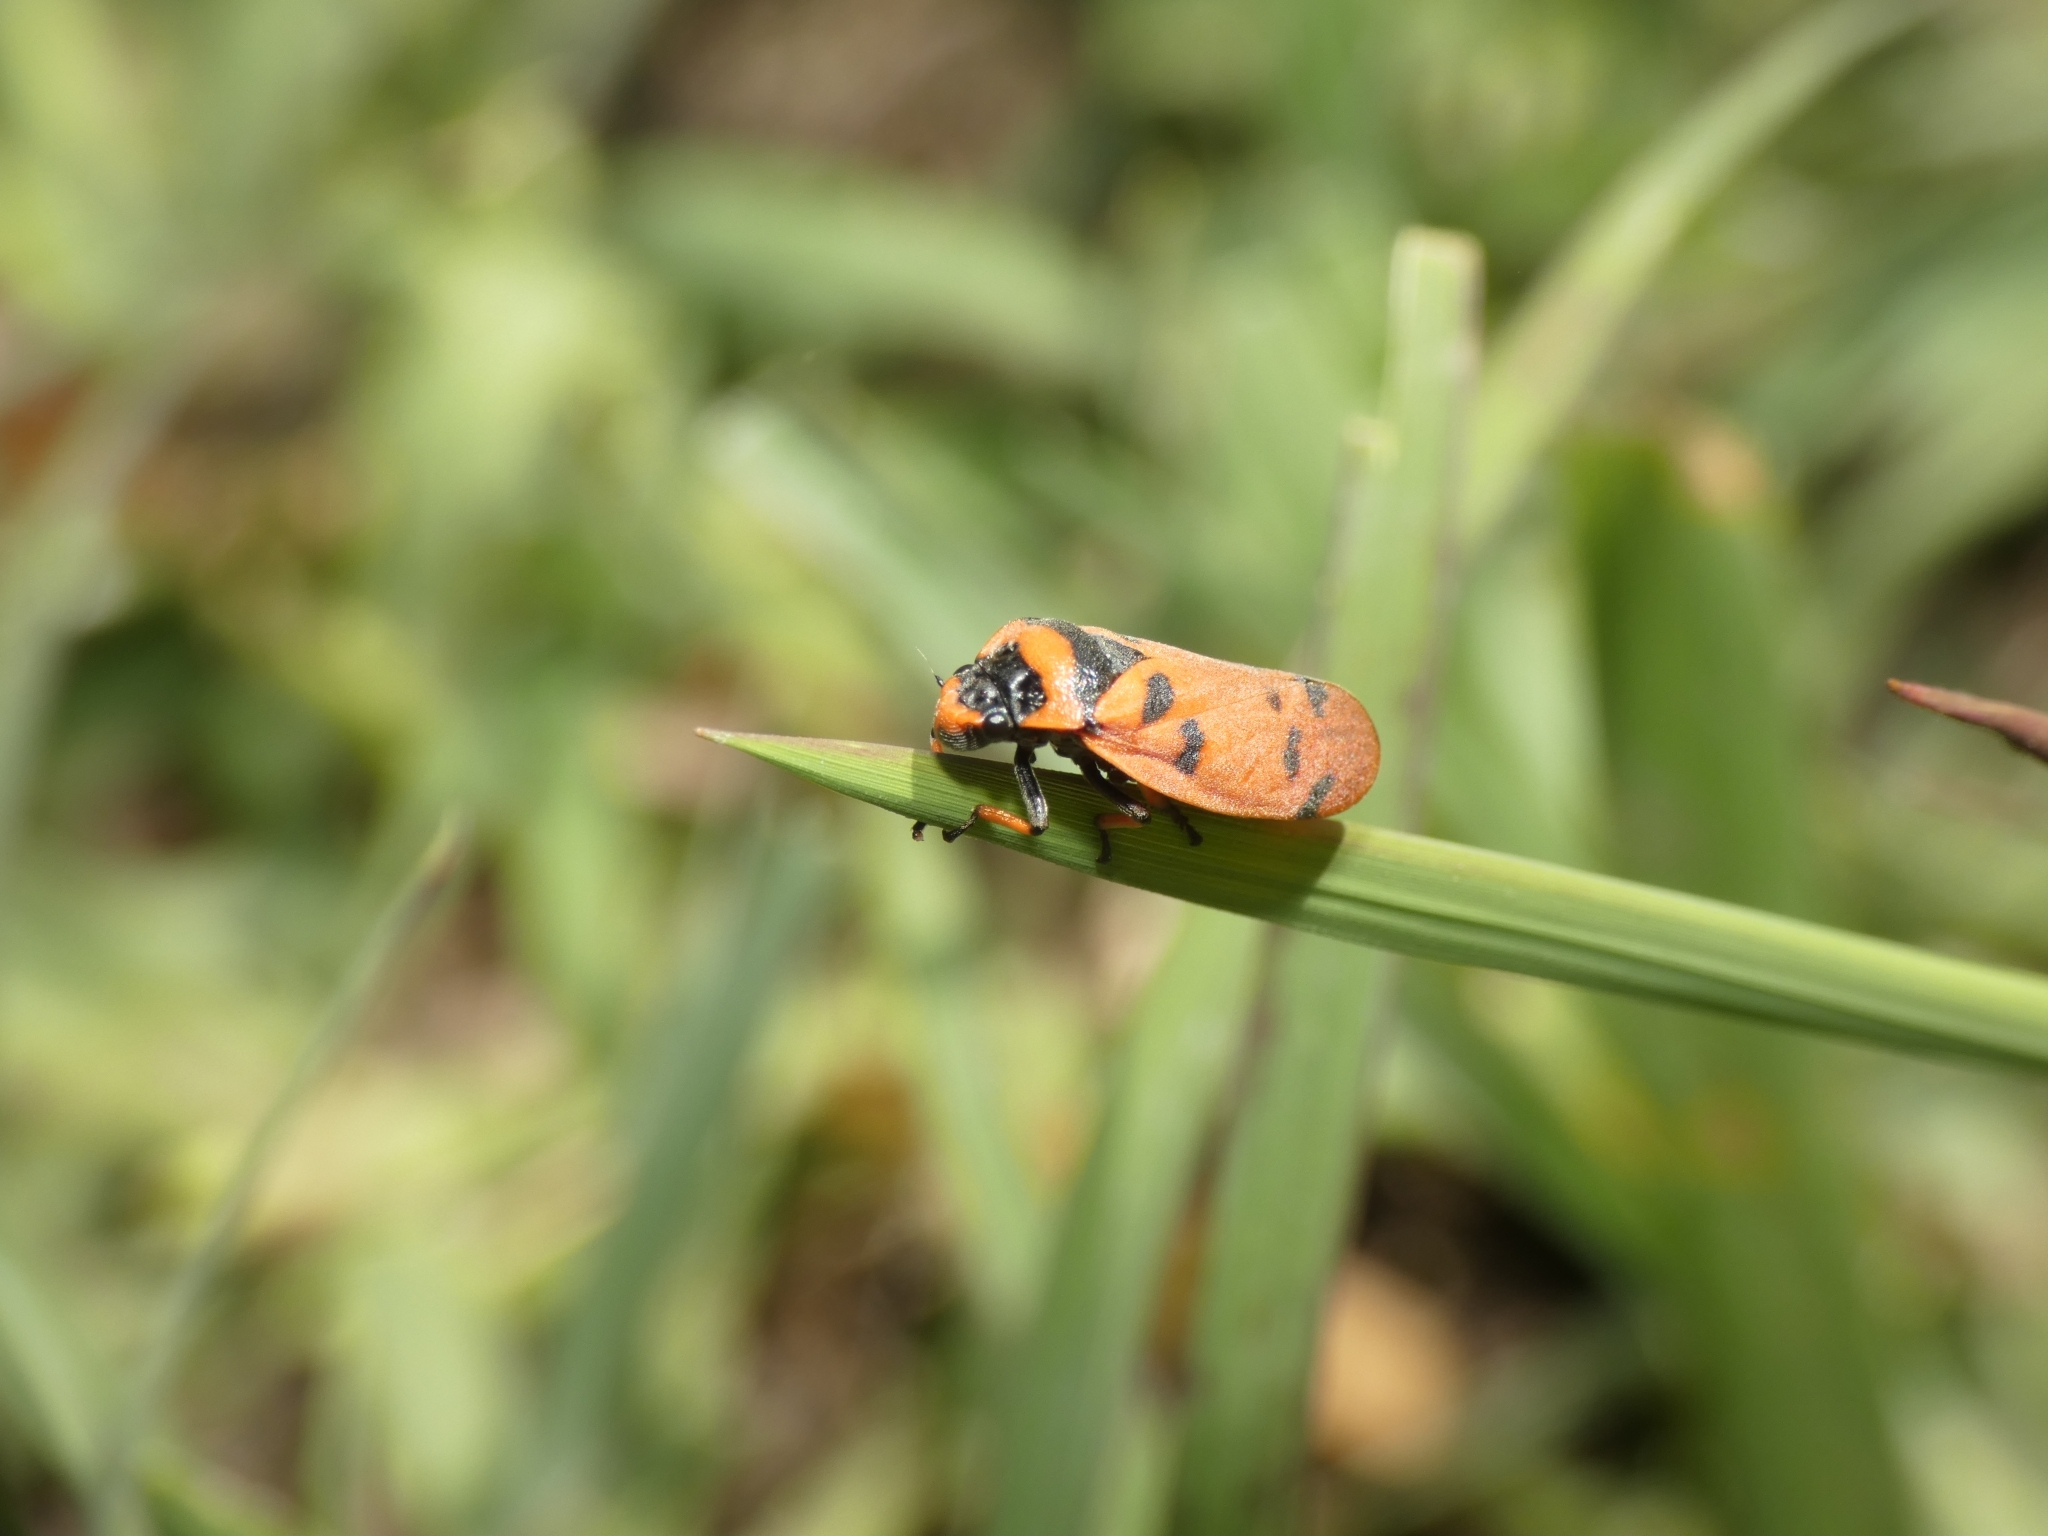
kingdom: Animalia
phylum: Arthropoda
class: Insecta
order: Hemiptera
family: Cercopidae
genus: Locris
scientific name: Locris arithmetica
